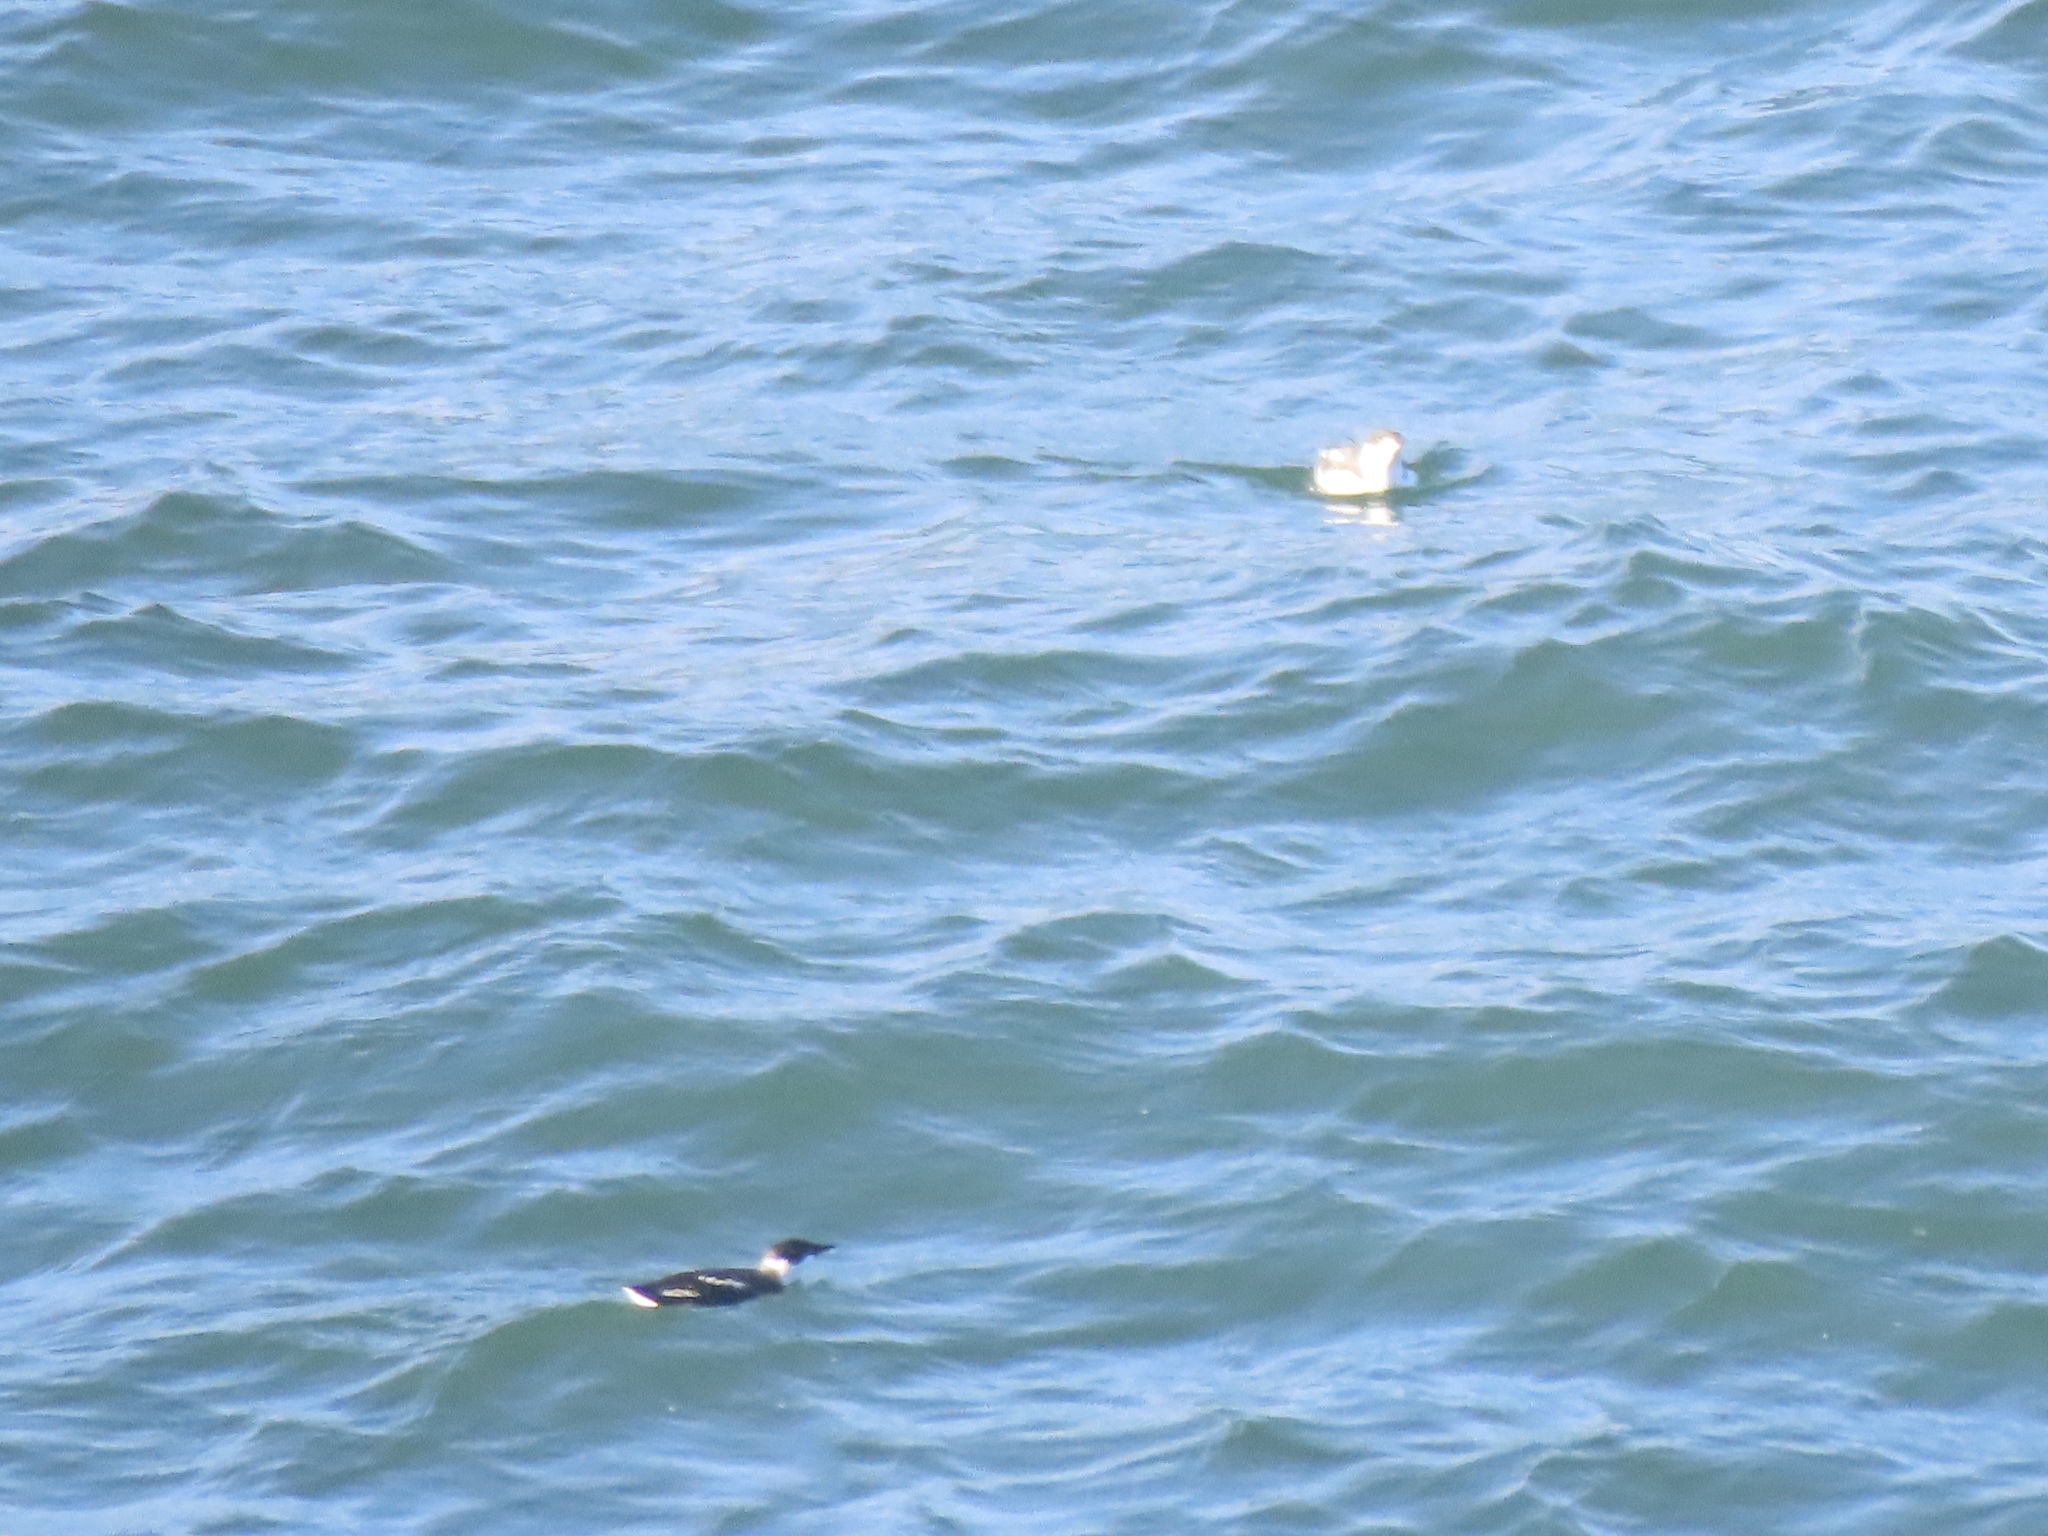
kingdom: Animalia
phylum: Chordata
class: Aves
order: Charadriiformes
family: Alcidae
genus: Brachyramphus
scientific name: Brachyramphus marmoratus
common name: Marbled murrelet
